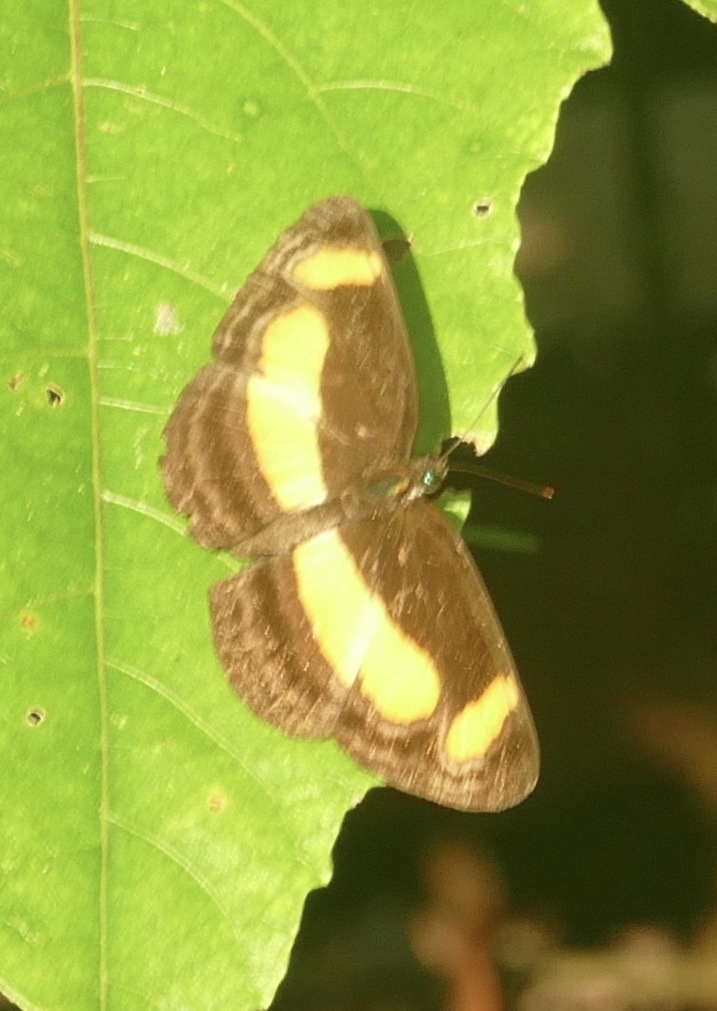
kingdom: Animalia
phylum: Arthropoda
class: Insecta
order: Lepidoptera
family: Nymphalidae
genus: Pantoporia
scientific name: Pantoporia consimilis
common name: Orange plane
